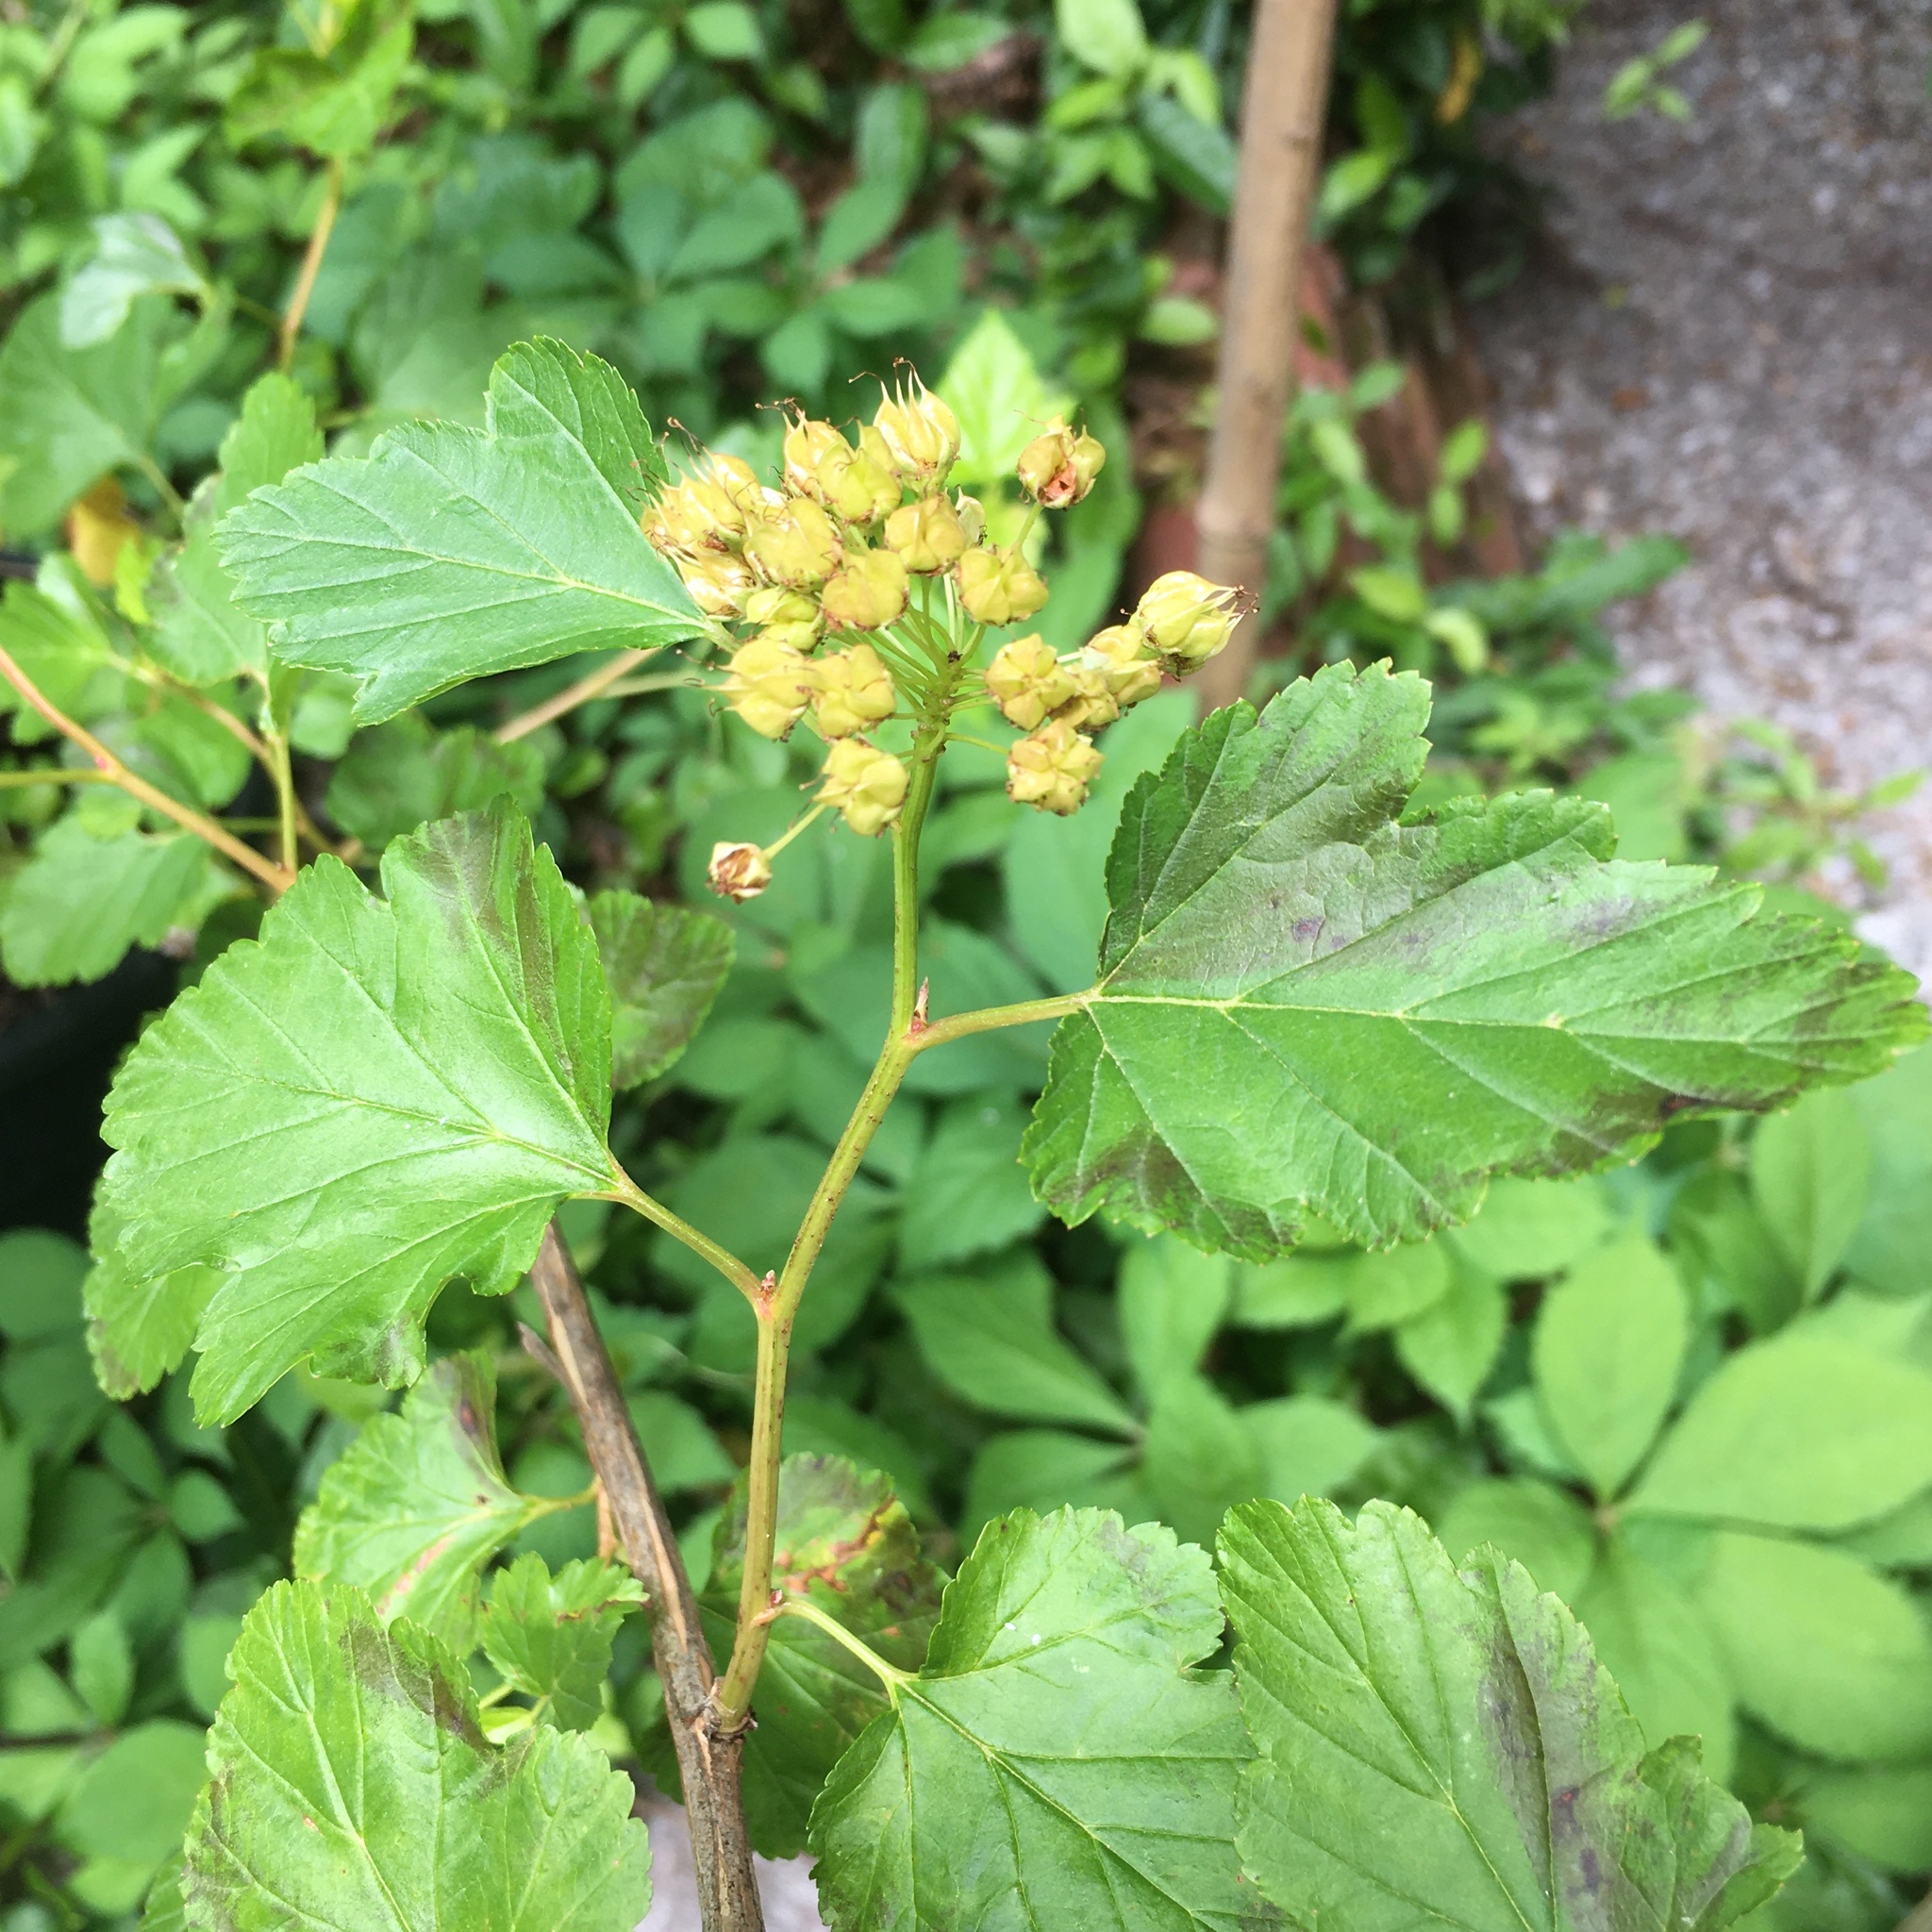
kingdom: Plantae
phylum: Tracheophyta
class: Magnoliopsida
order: Rosales
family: Rosaceae
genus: Physocarpus
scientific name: Physocarpus opulifolius
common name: Ninebark
